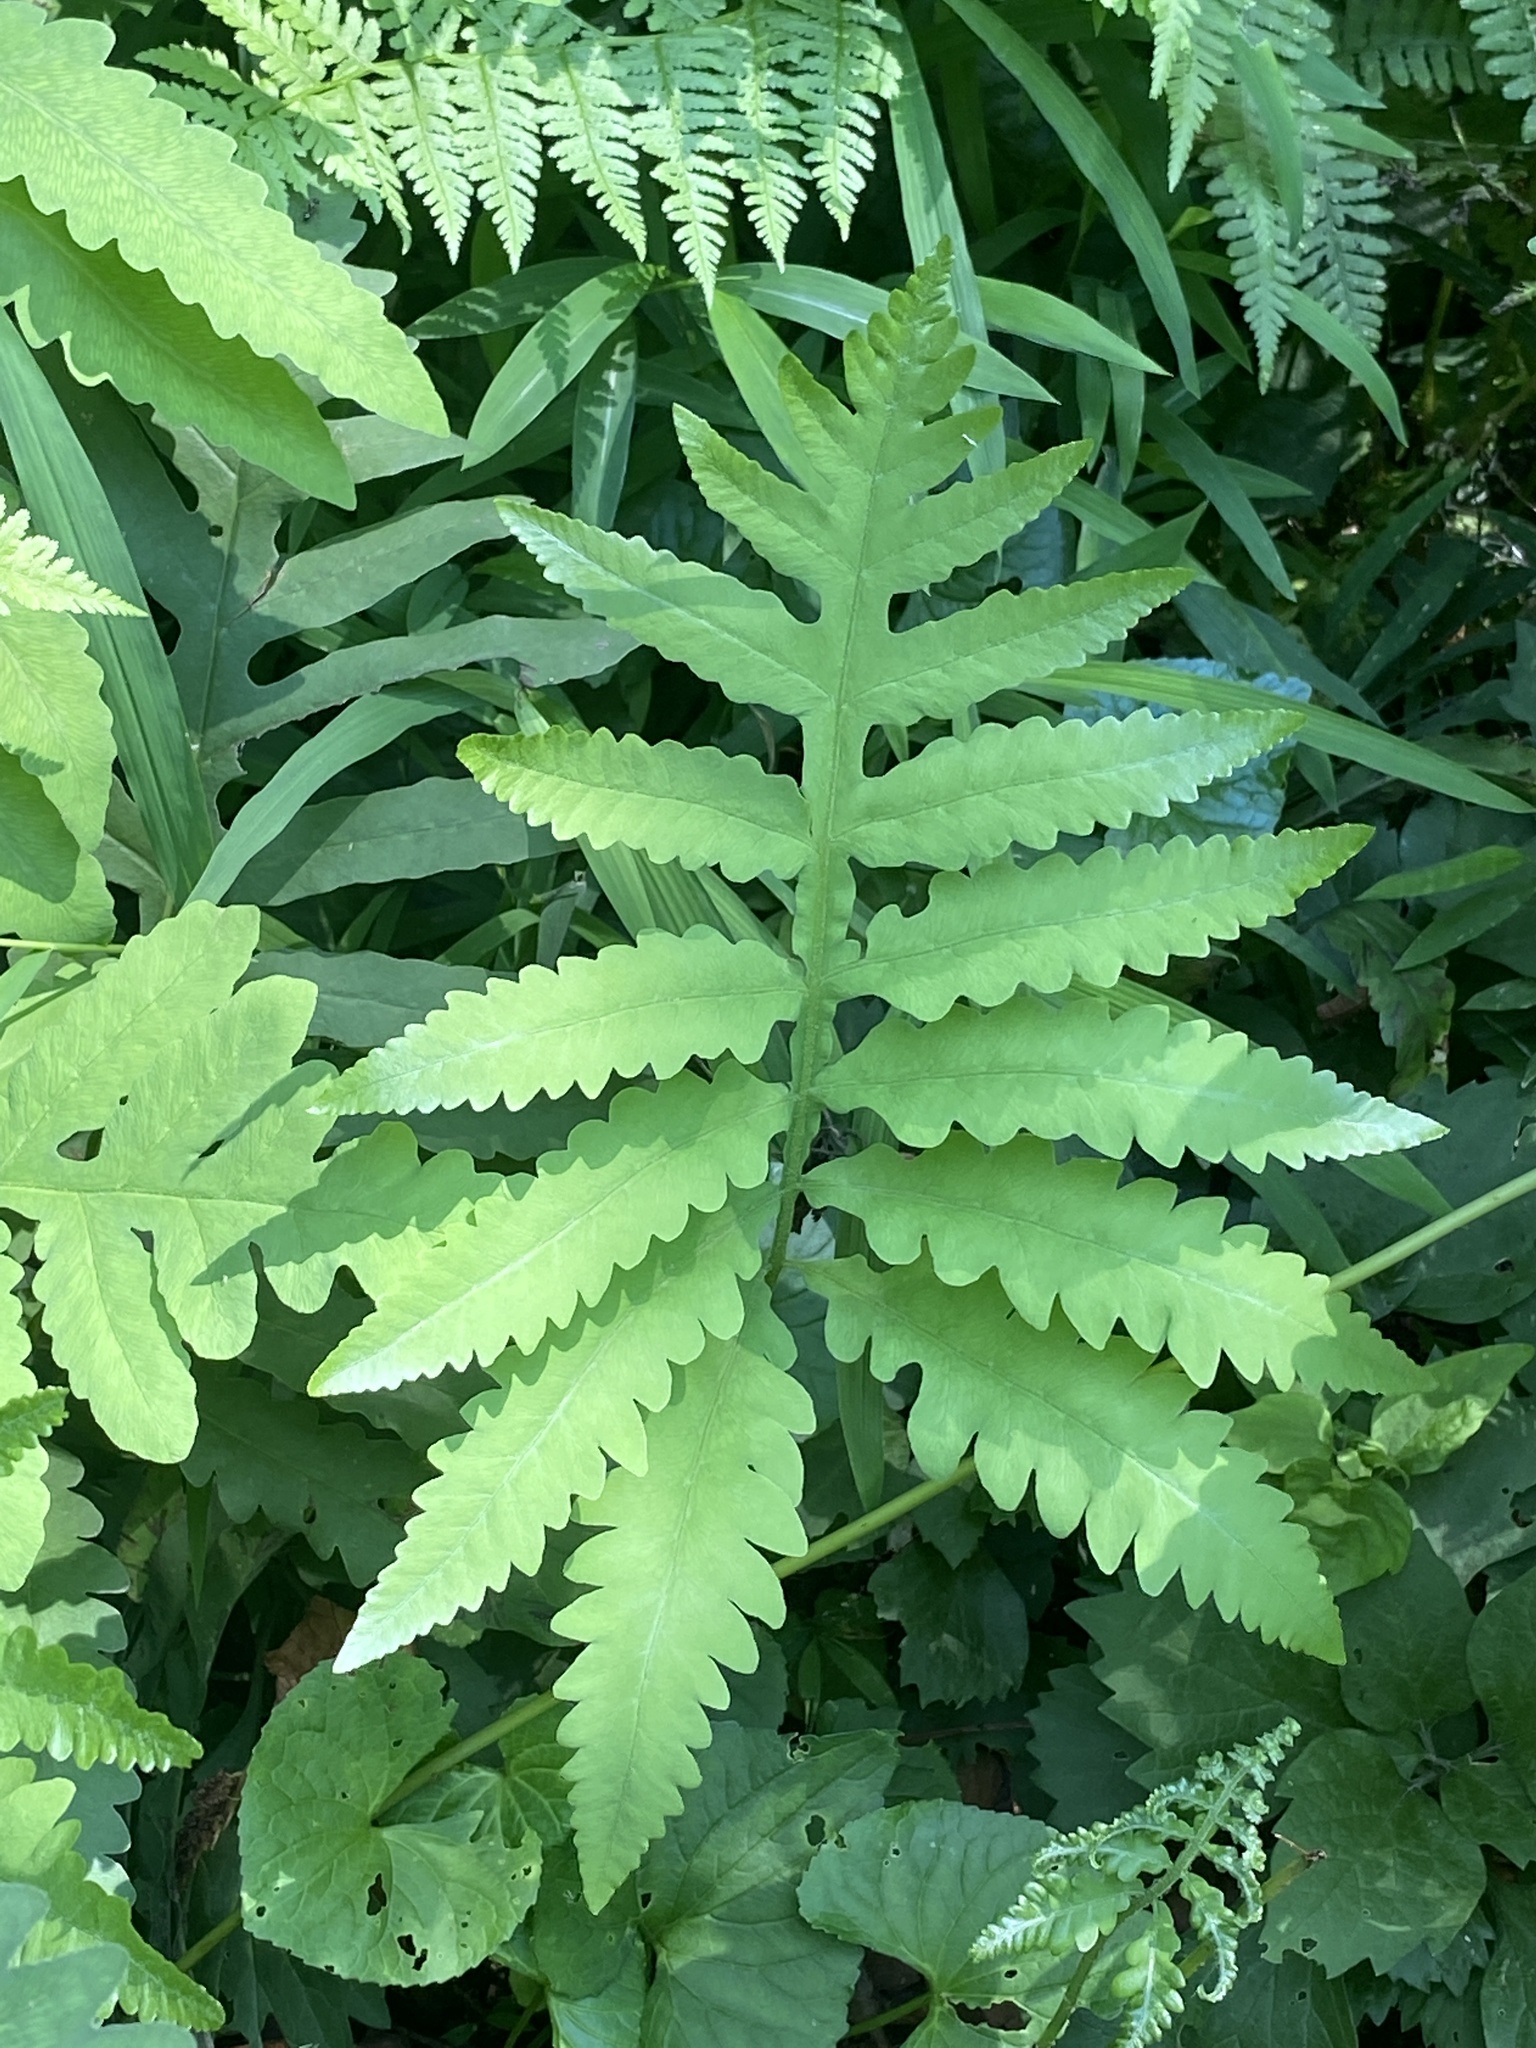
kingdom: Plantae
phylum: Tracheophyta
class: Polypodiopsida
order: Polypodiales
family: Onocleaceae
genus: Onoclea
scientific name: Onoclea sensibilis
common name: Sensitive fern
